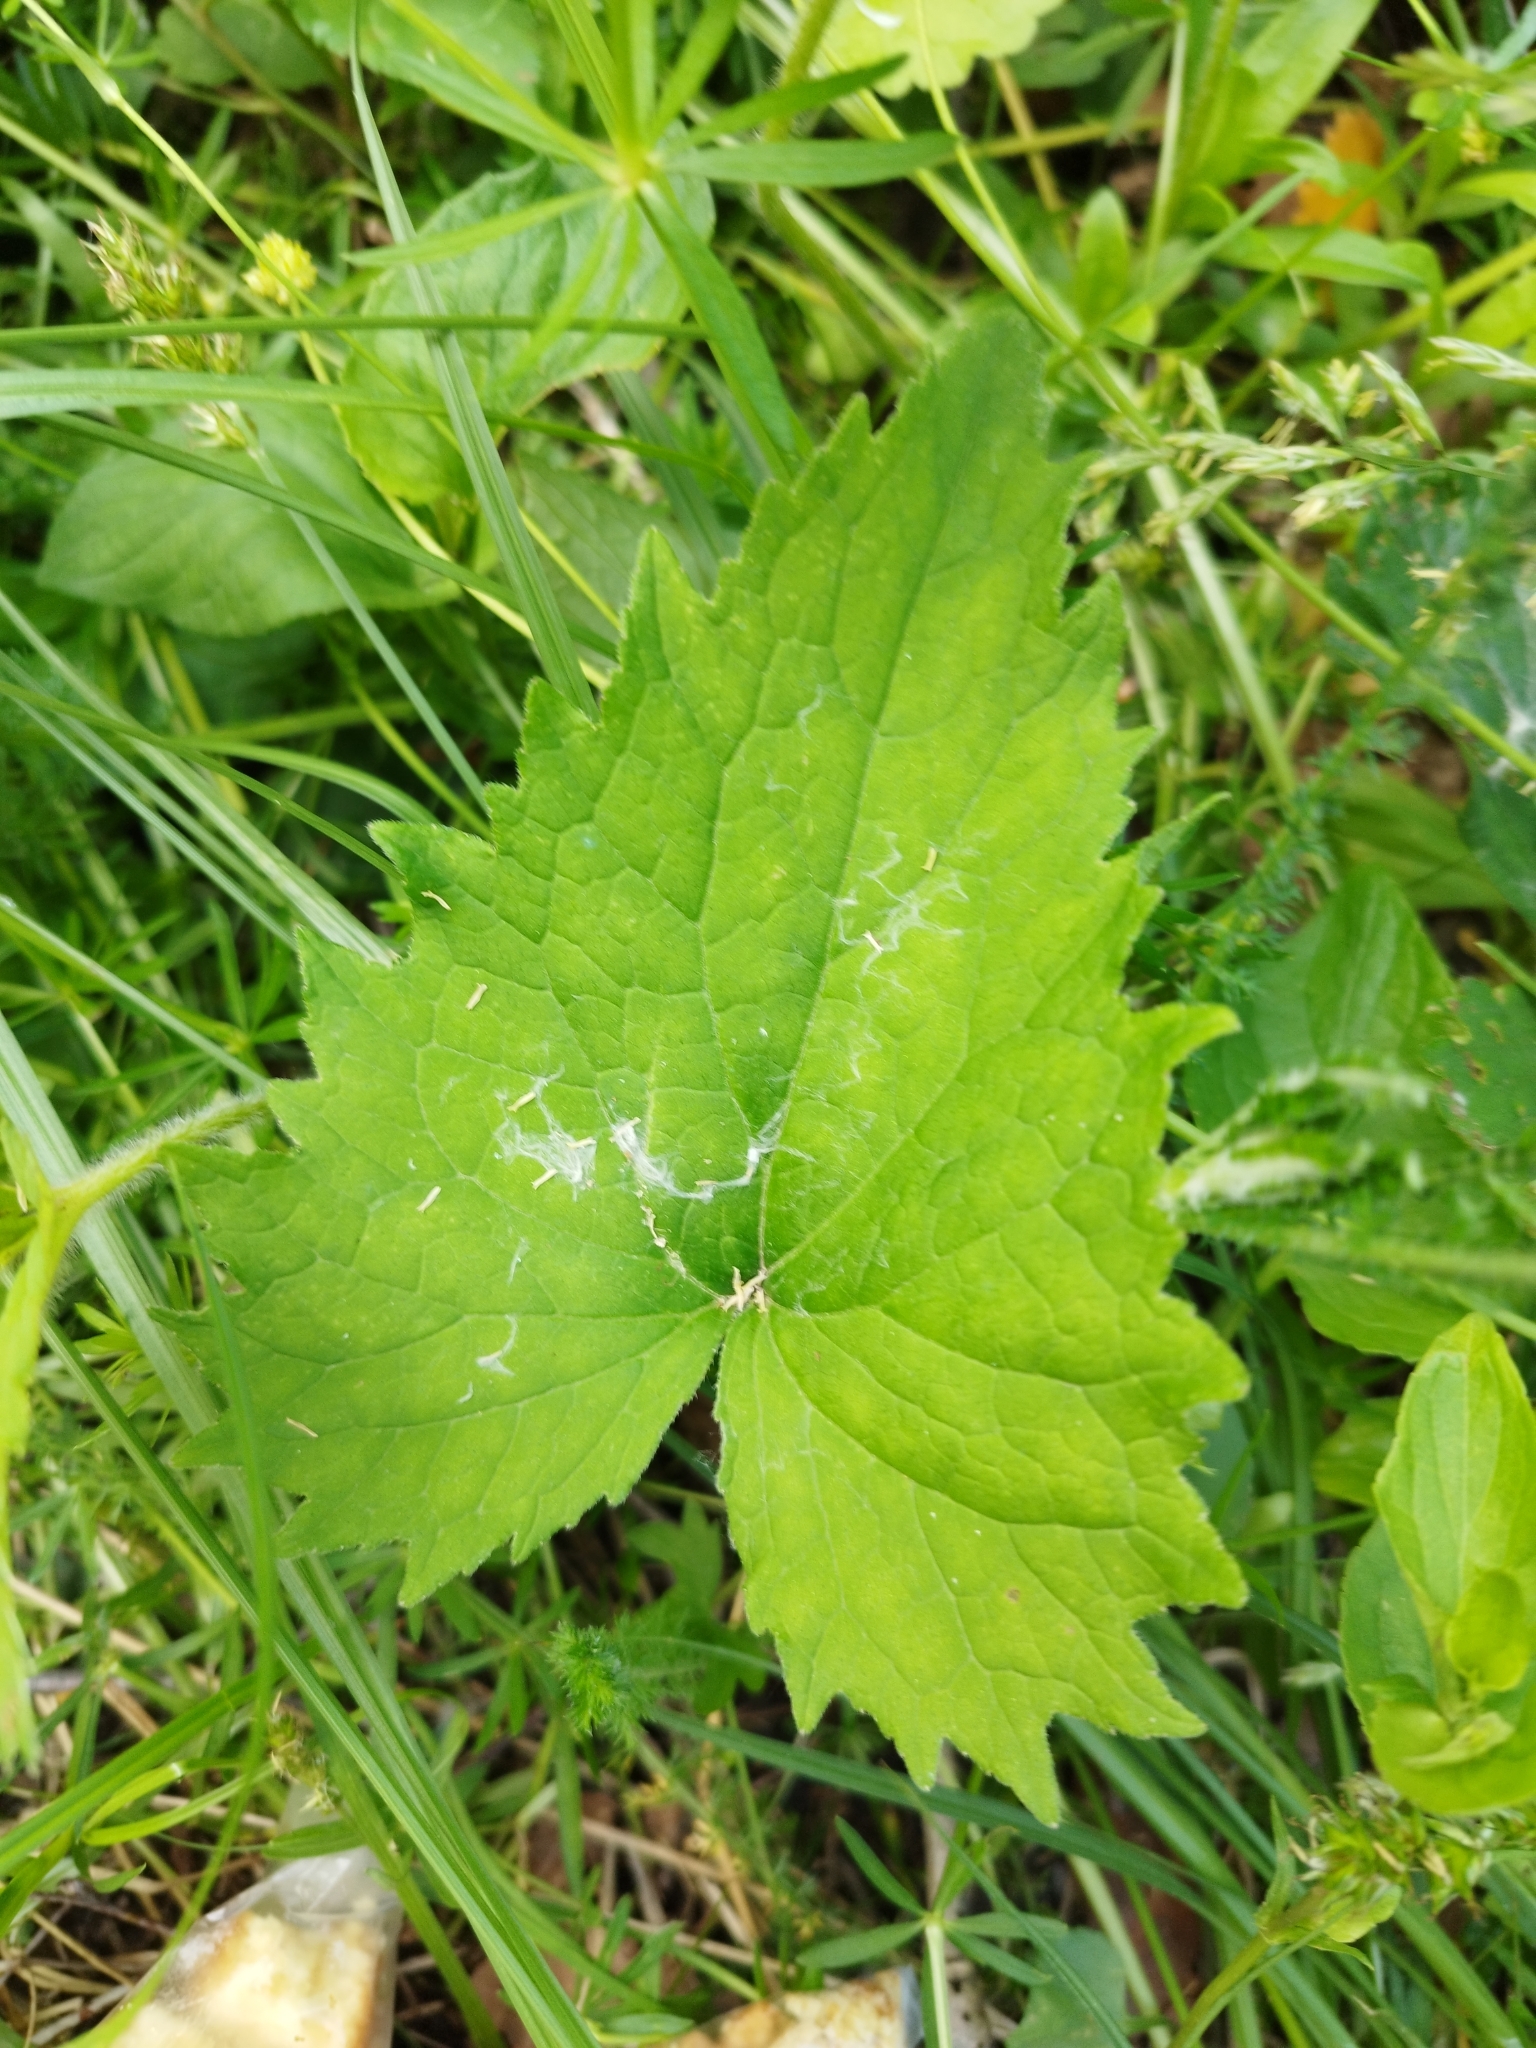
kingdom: Plantae
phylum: Tracheophyta
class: Magnoliopsida
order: Asterales
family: Campanulaceae
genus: Campanula
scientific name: Campanula trachelium
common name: Nettle-leaved bellflower
